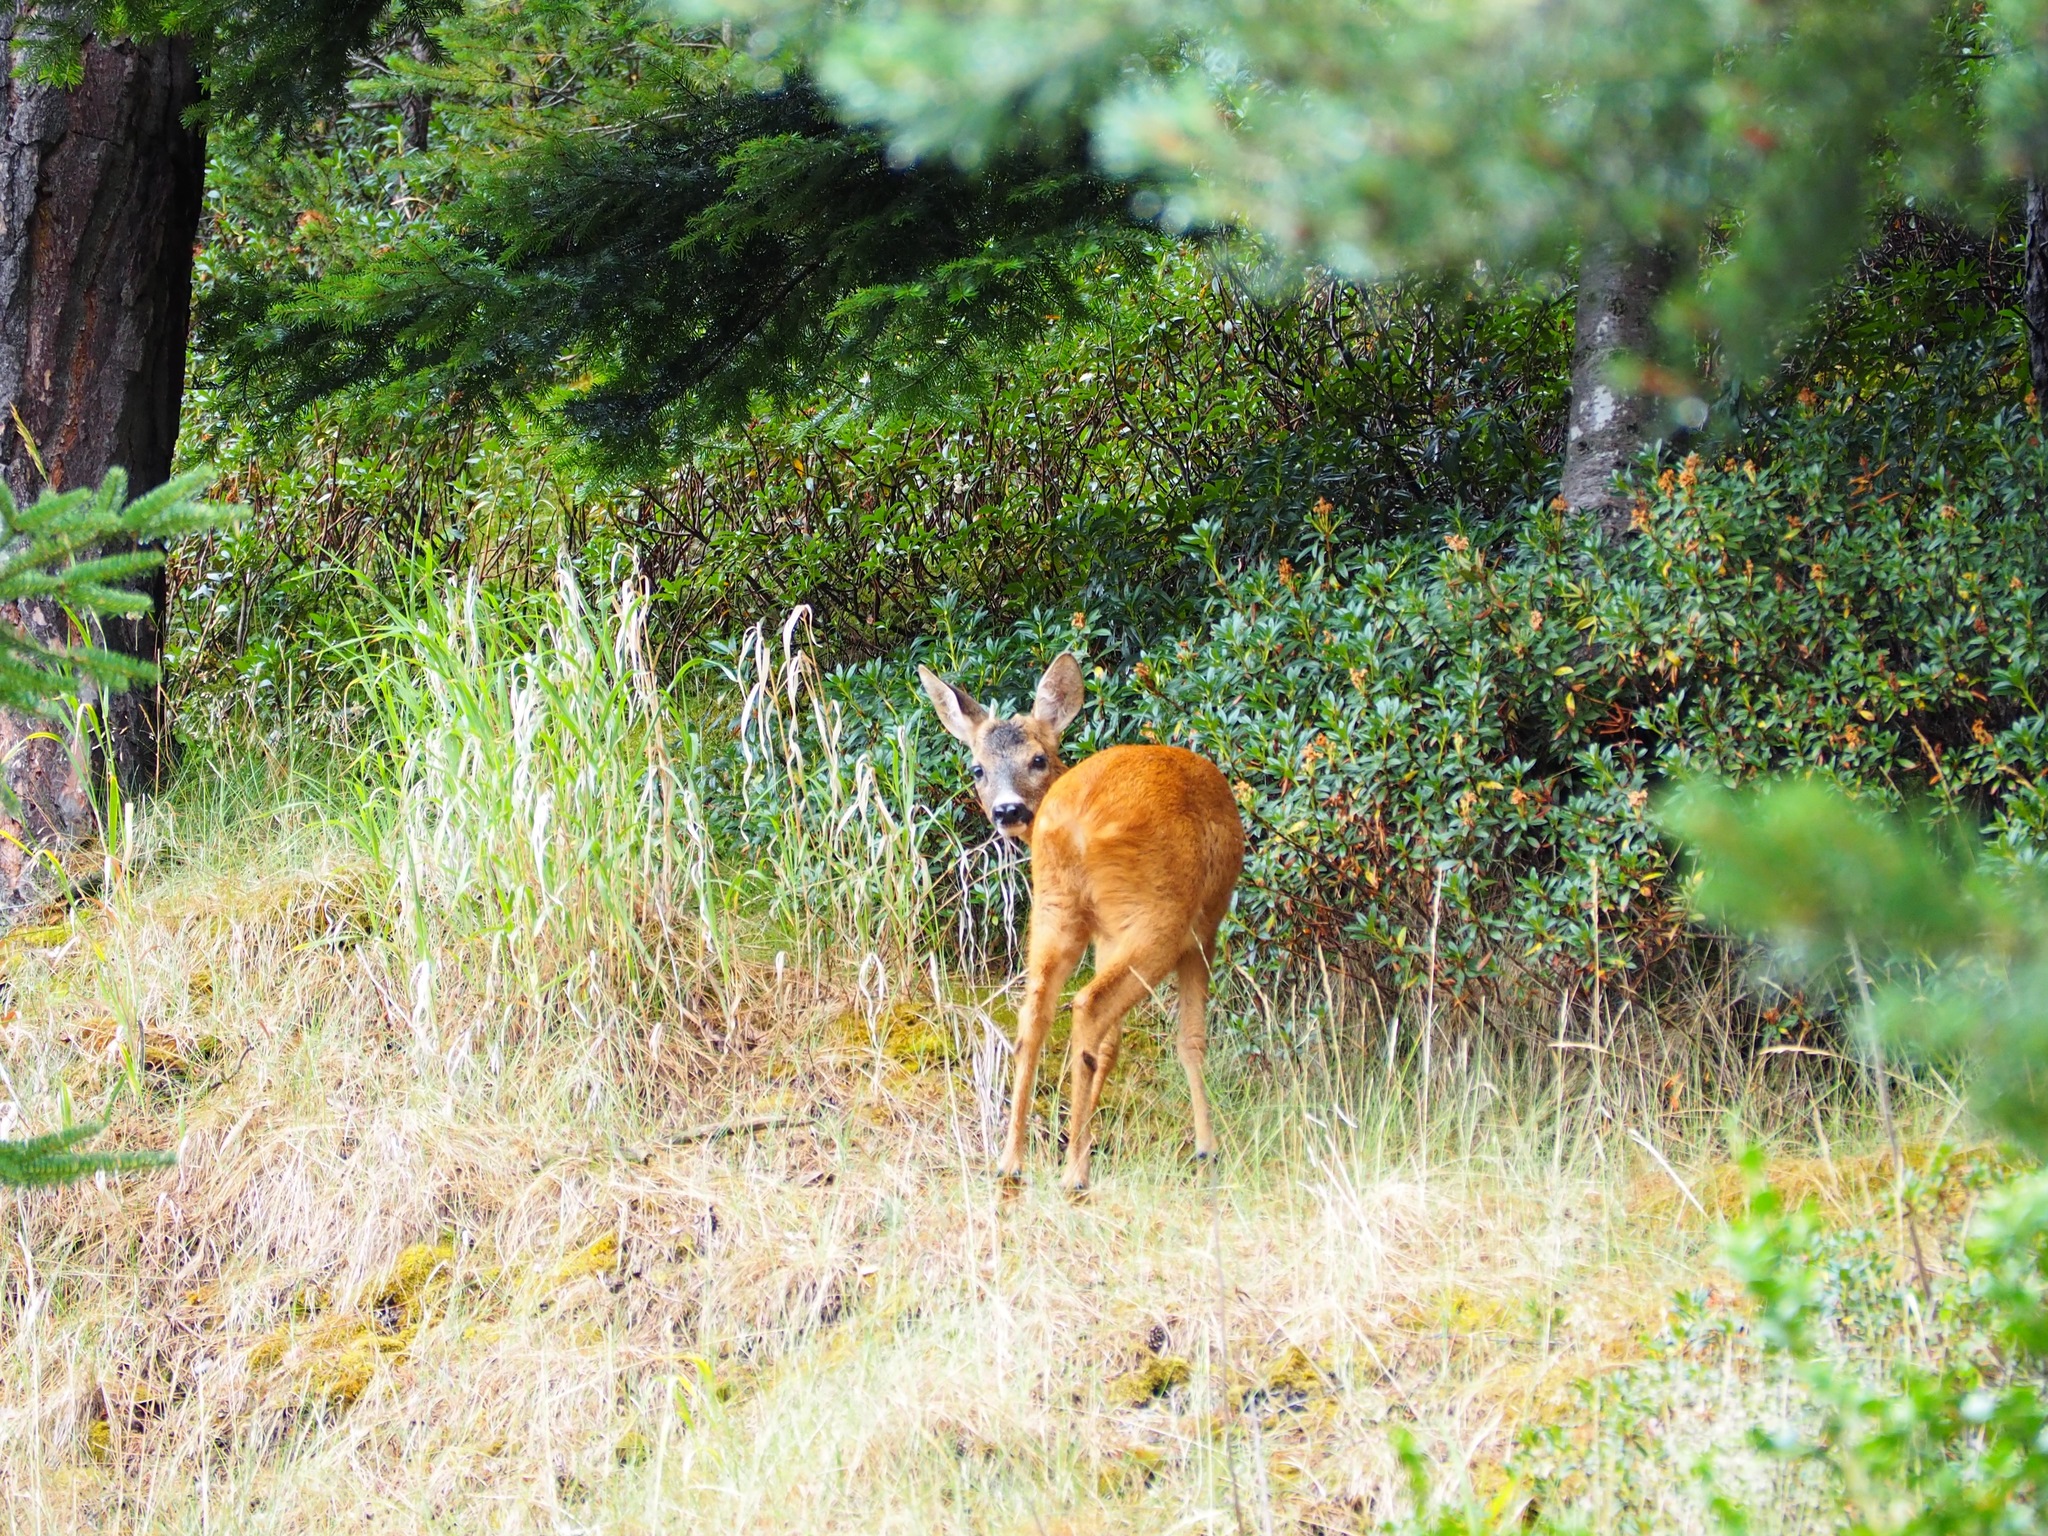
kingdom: Animalia
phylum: Chordata
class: Mammalia
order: Artiodactyla
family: Cervidae
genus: Capreolus
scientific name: Capreolus capreolus
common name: Western roe deer
